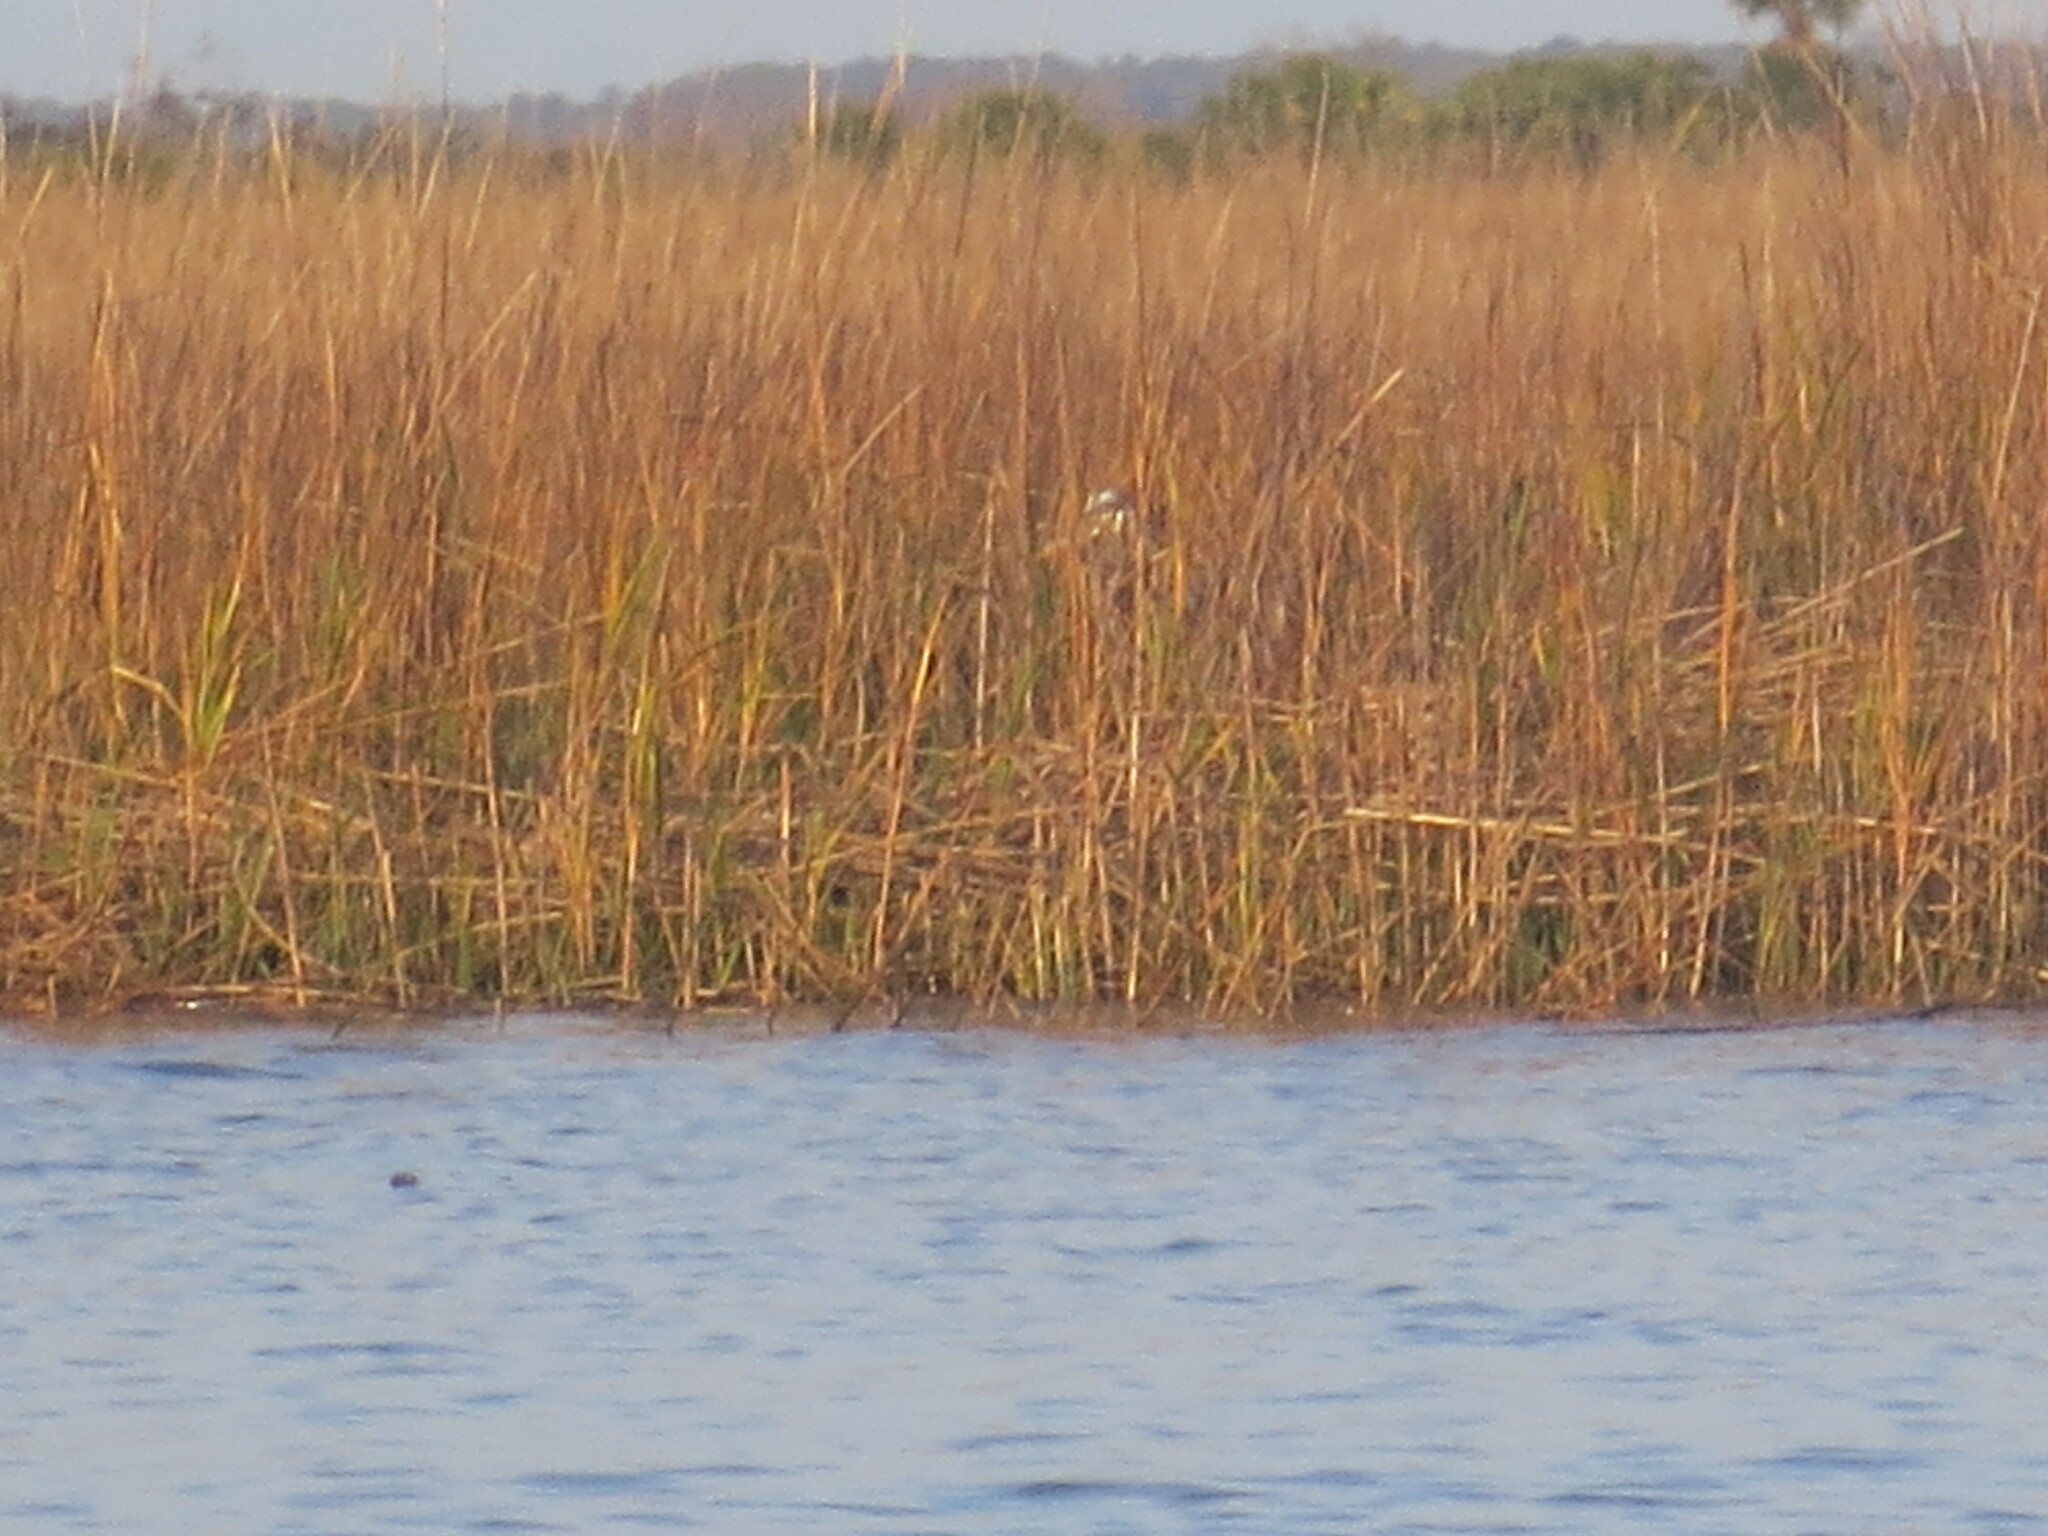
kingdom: Animalia
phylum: Chordata
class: Aves
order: Pelecaniformes
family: Ardeidae
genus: Ardea
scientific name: Ardea herodias
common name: Great blue heron
